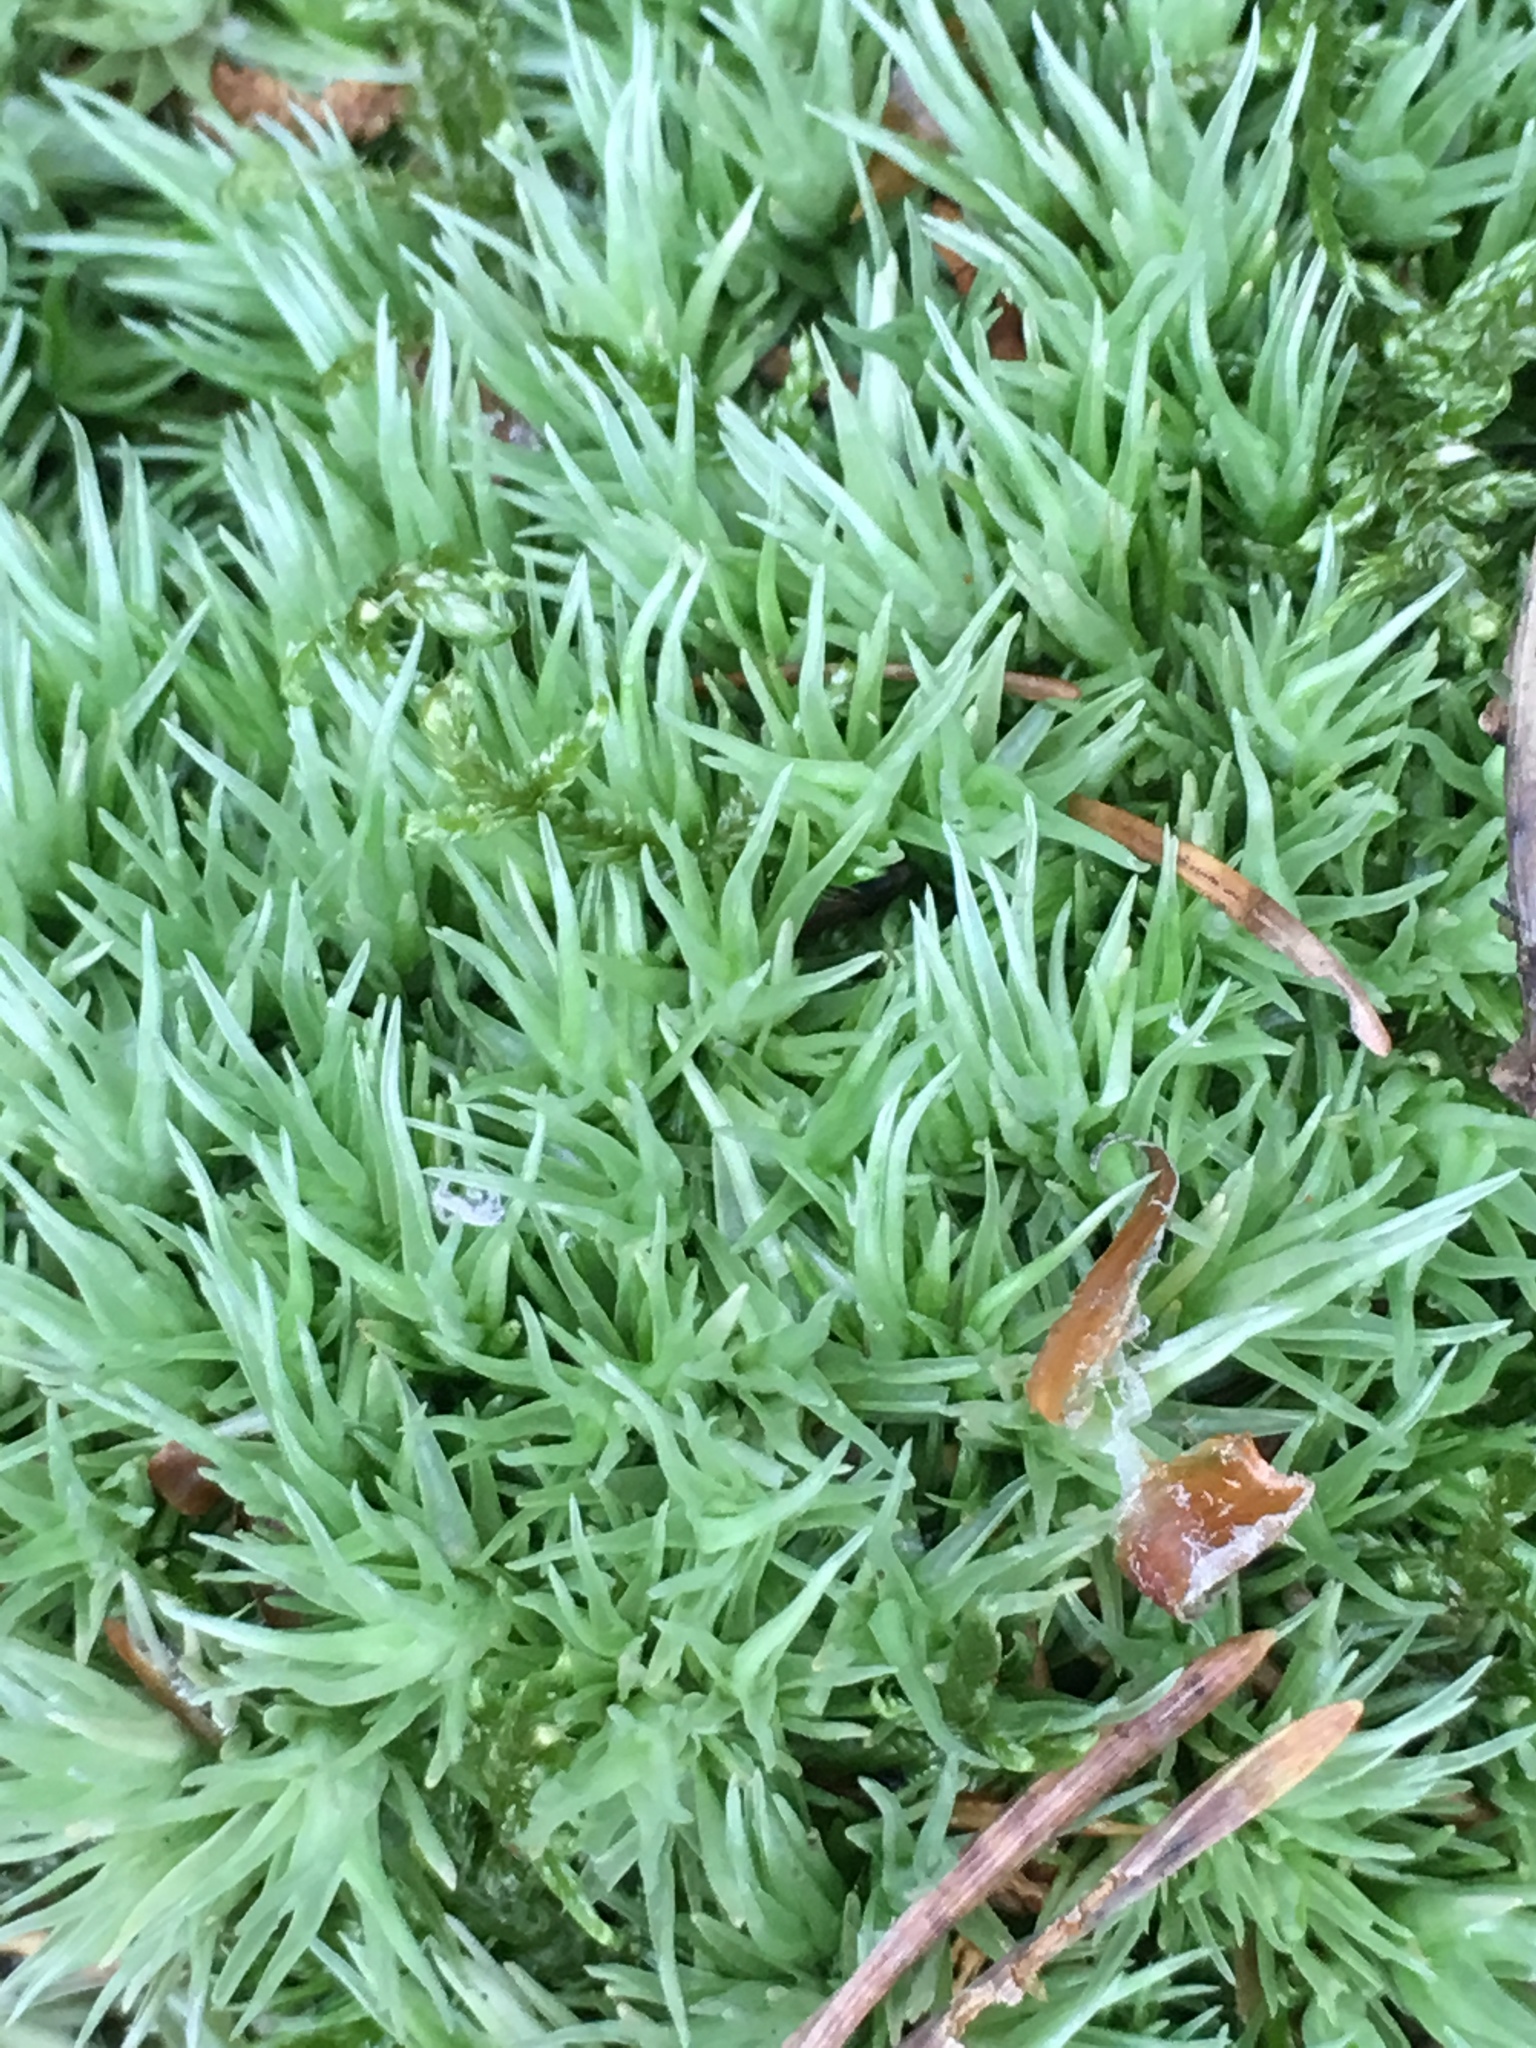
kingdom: Plantae
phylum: Bryophyta
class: Bryopsida
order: Dicranales
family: Leucobryaceae
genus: Leucobryum
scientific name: Leucobryum glaucum
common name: Large white-moss
